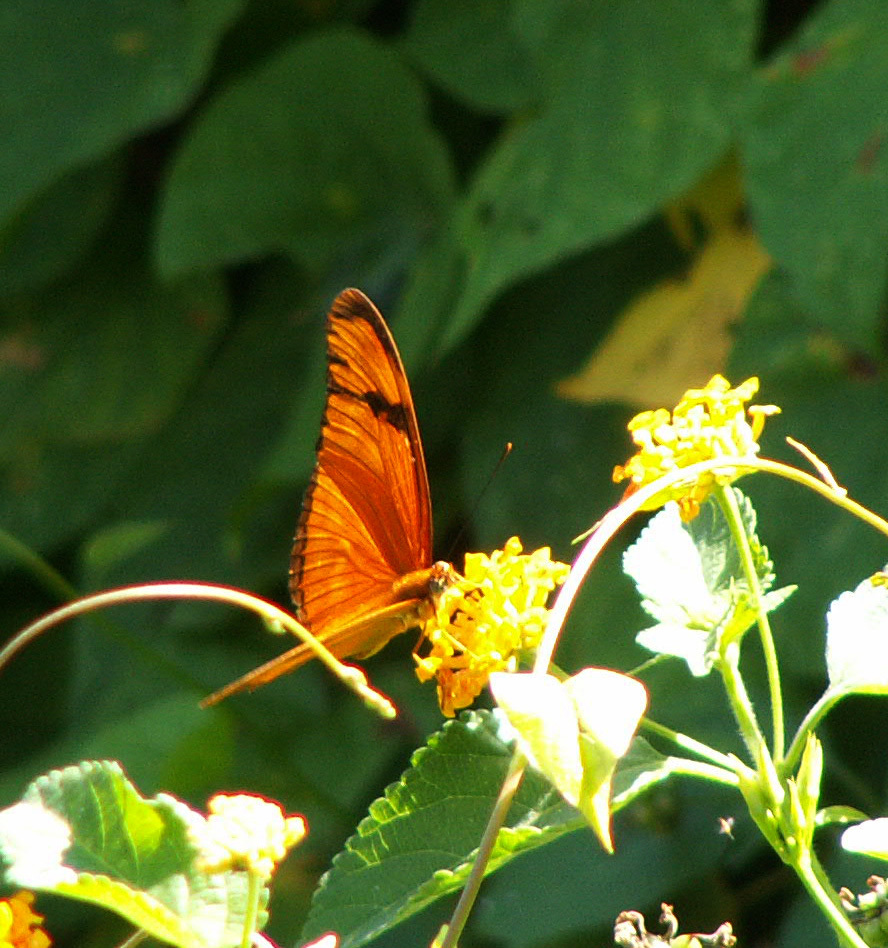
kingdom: Animalia
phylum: Arthropoda
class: Insecta
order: Lepidoptera
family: Nymphalidae
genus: Dryas
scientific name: Dryas iulia
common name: Flambeau
